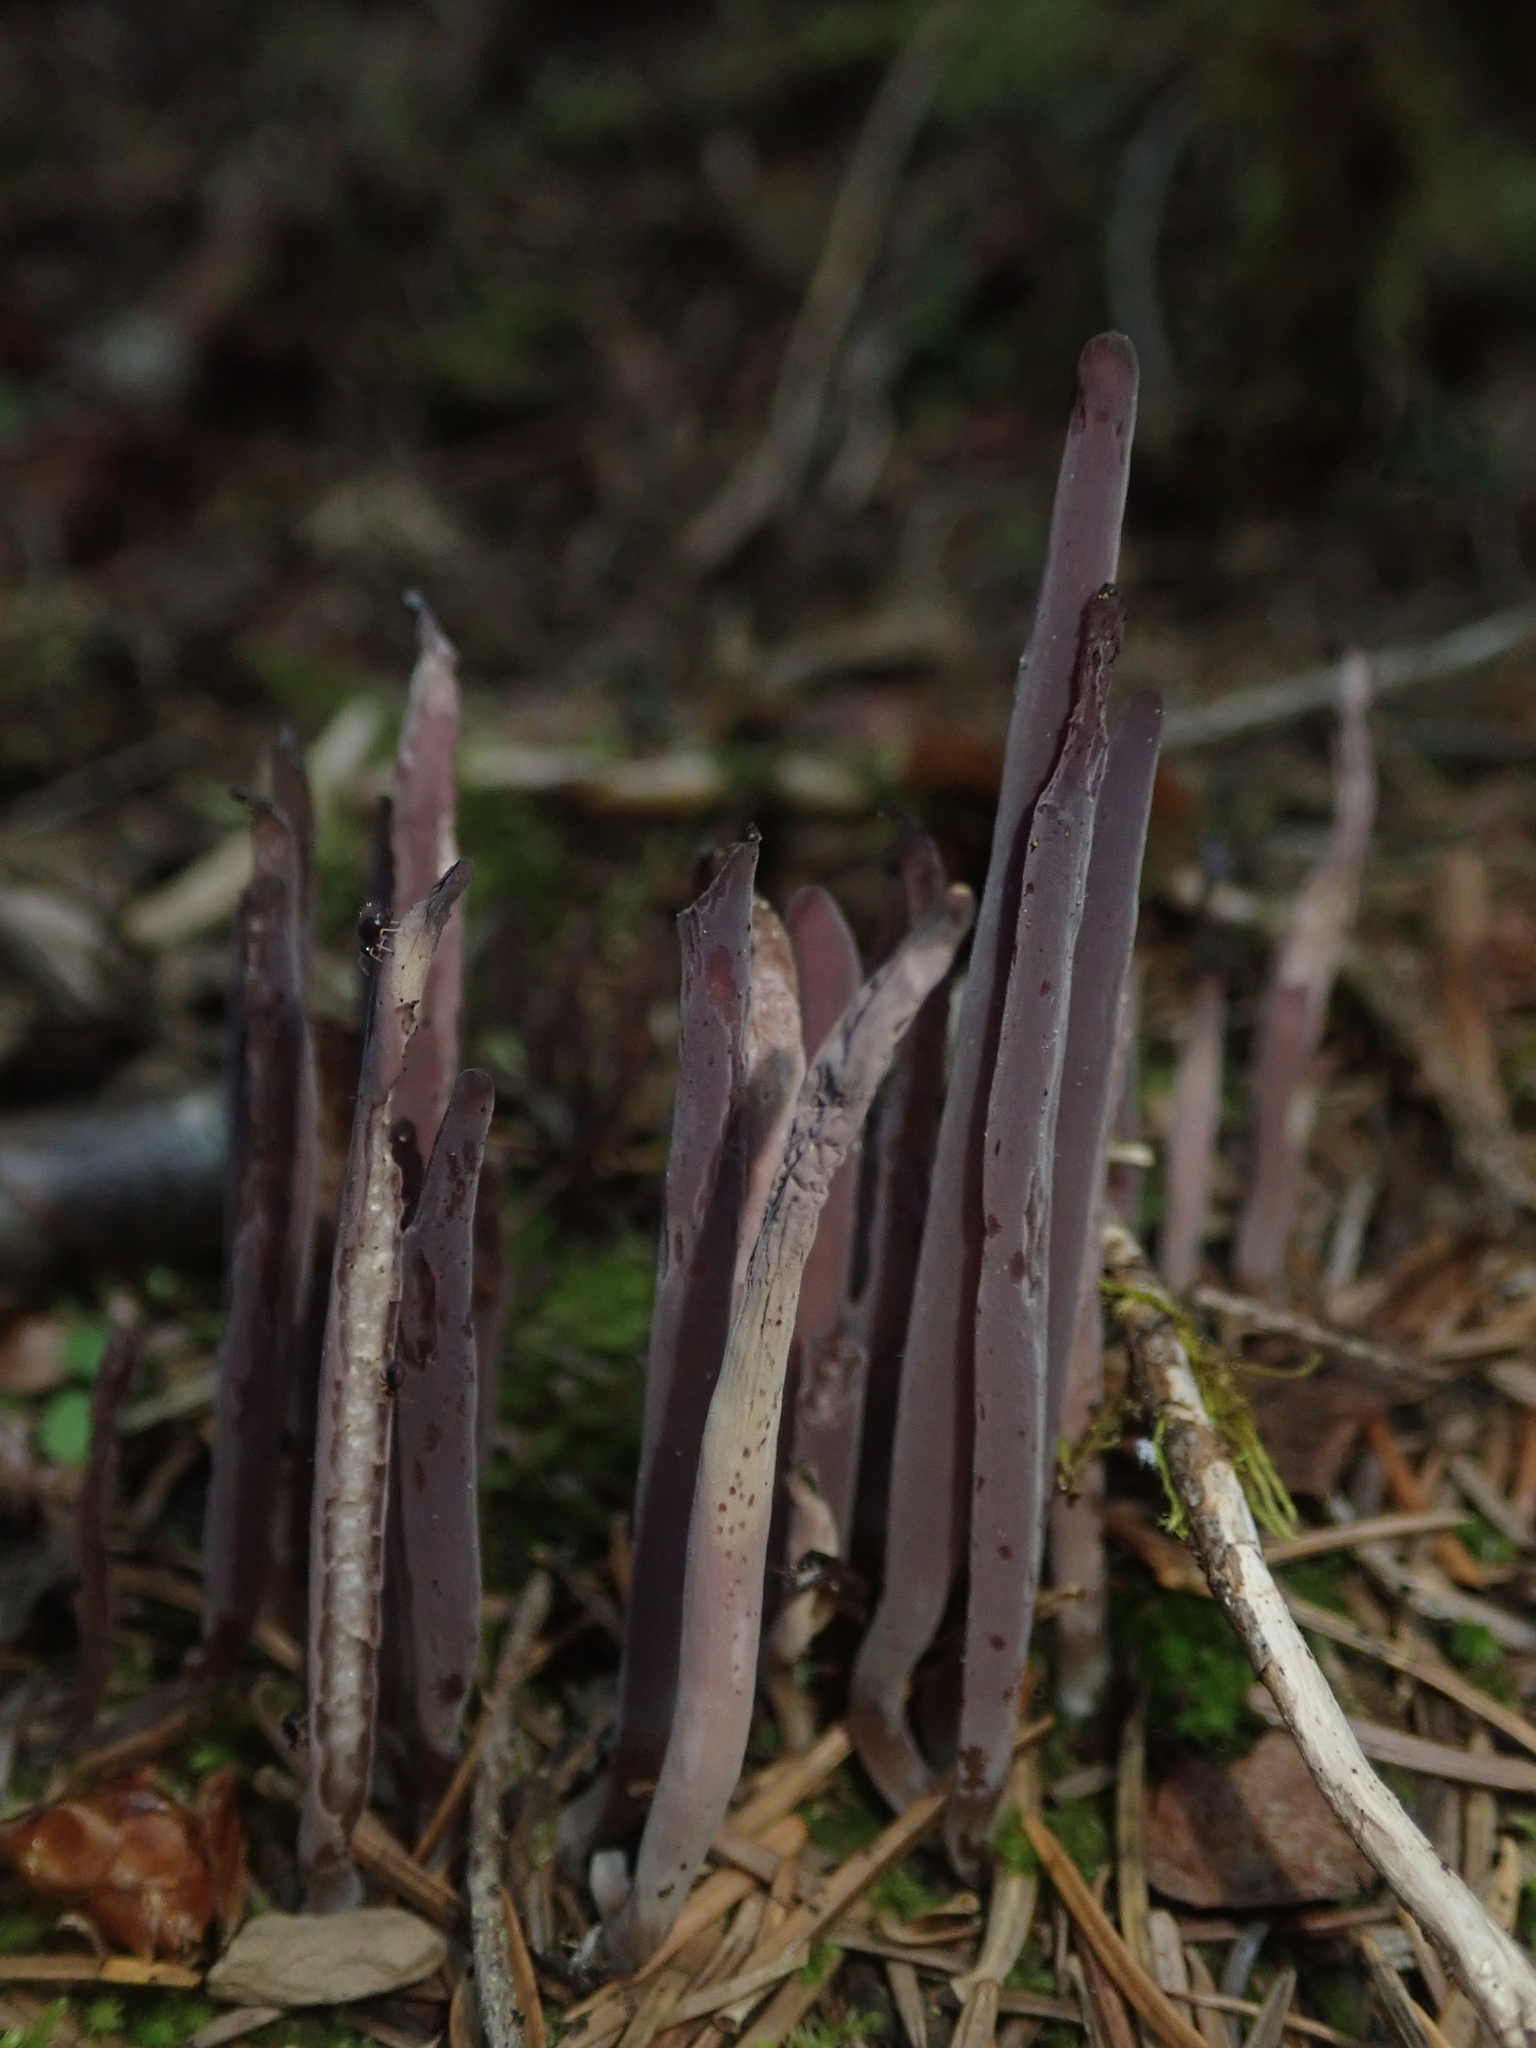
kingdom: Fungi
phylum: Basidiomycota
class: Agaricomycetes
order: Hymenochaetales
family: Rickenellaceae
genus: Alloclavaria
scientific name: Alloclavaria purpurea
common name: Purple spindles
